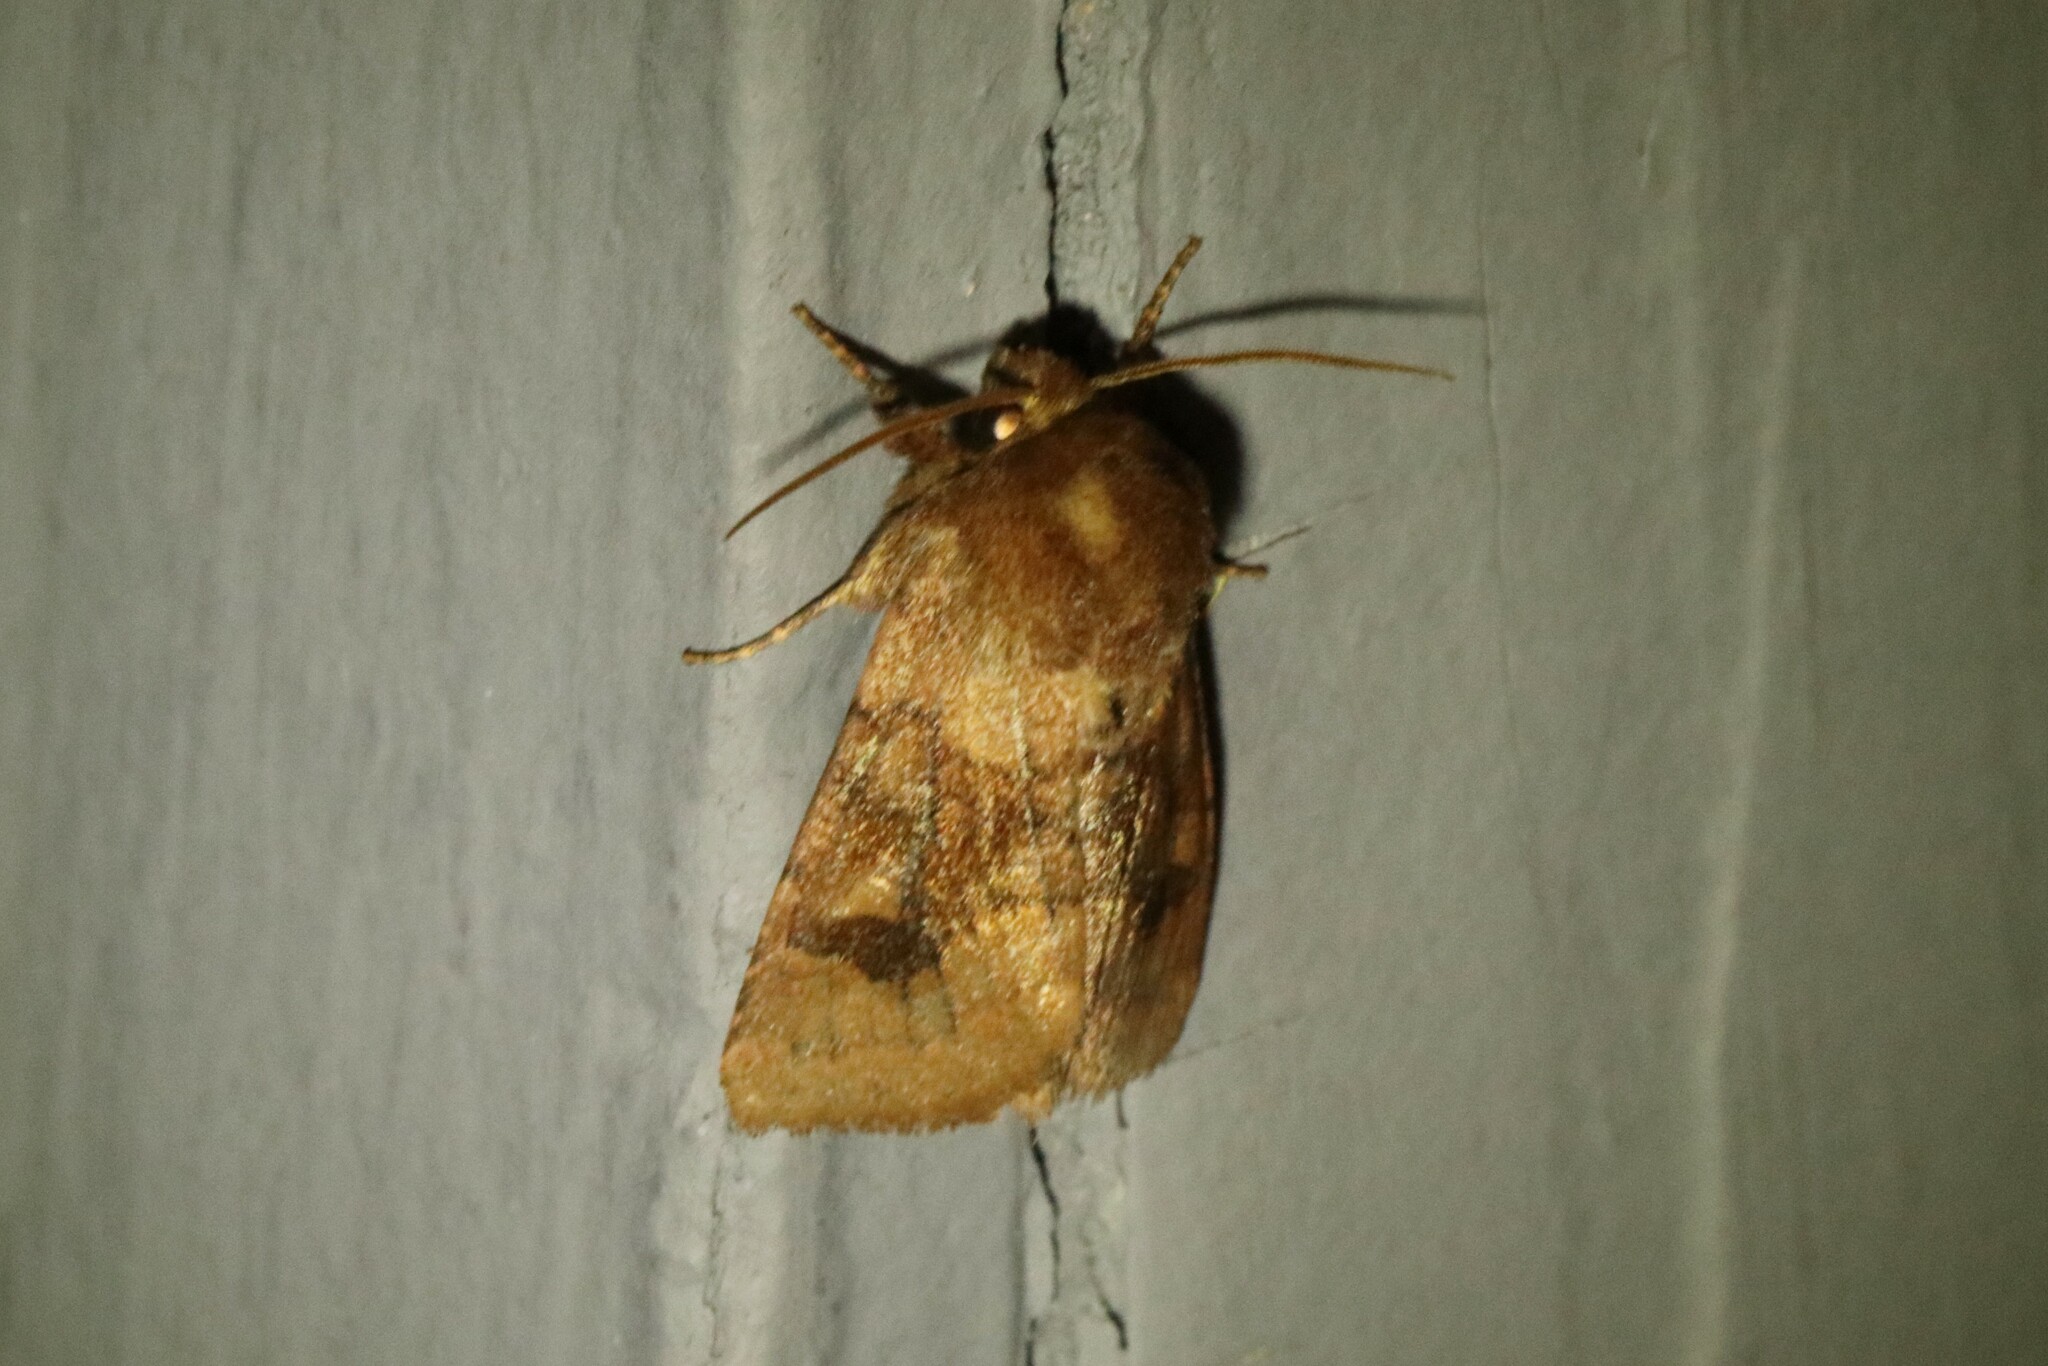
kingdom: Animalia
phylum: Arthropoda
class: Insecta
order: Lepidoptera
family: Noctuidae
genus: Nephelodes
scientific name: Nephelodes minians
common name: Bronzed cutworm
